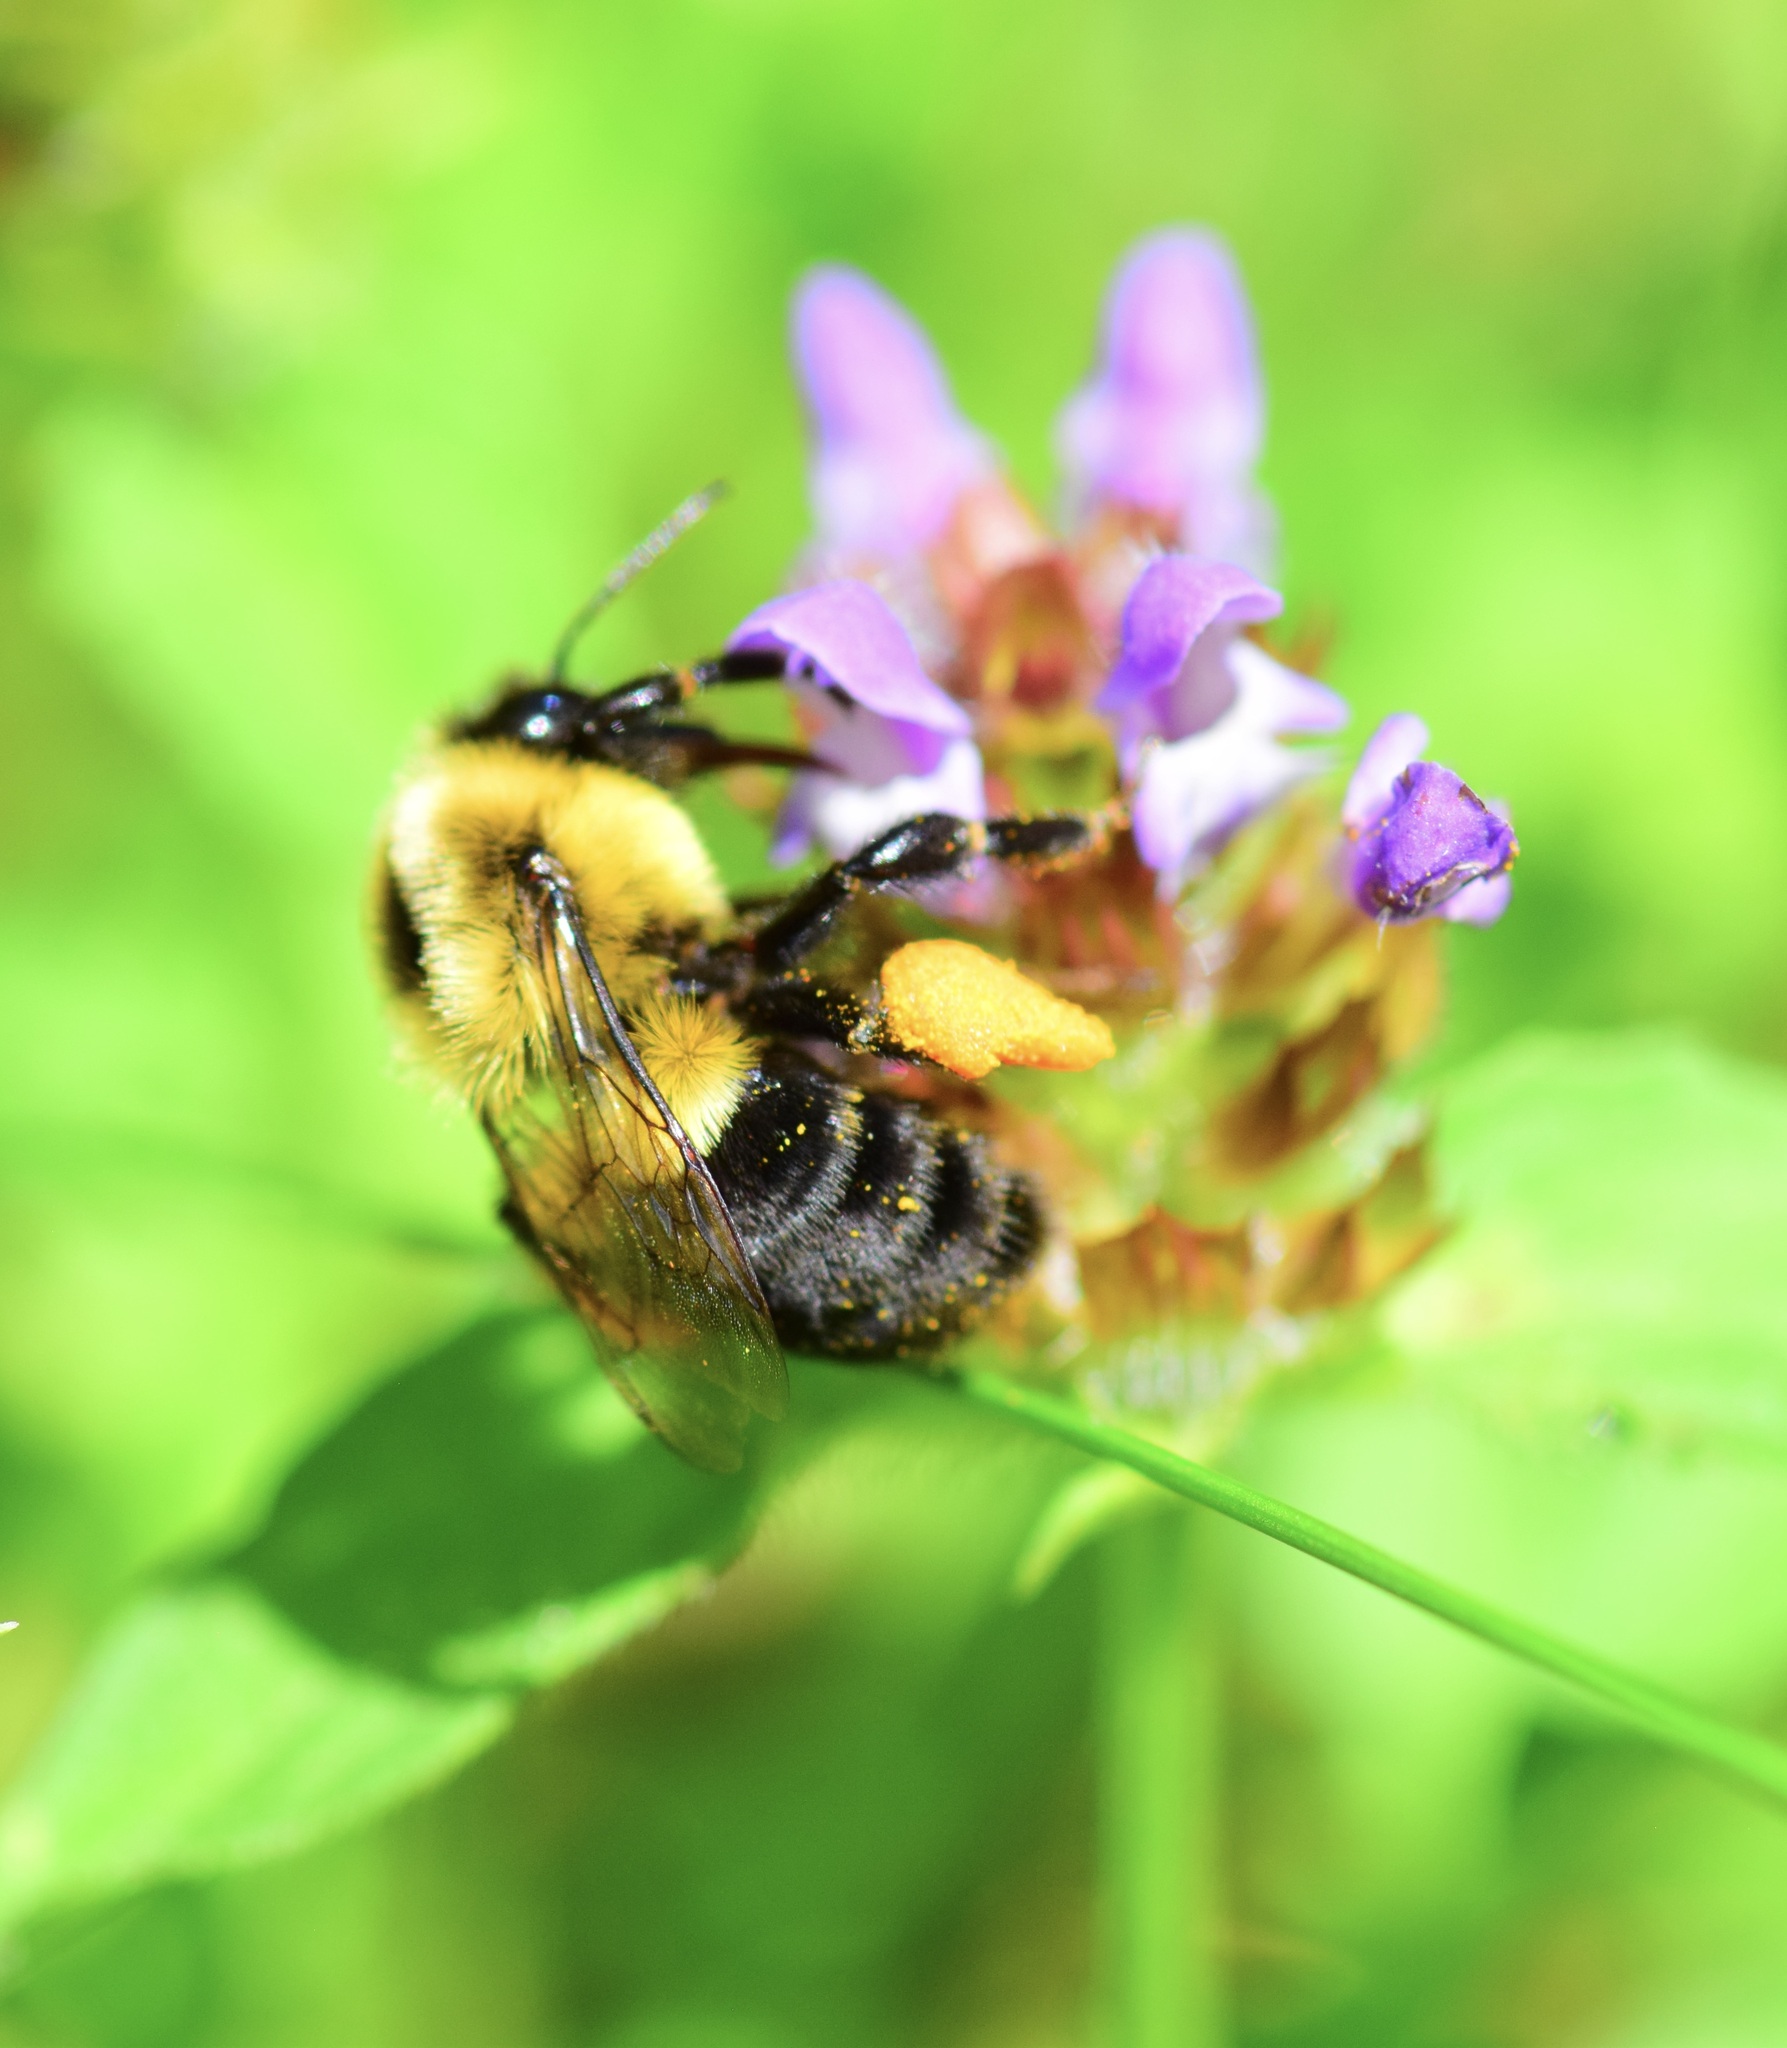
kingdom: Animalia
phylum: Arthropoda
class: Insecta
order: Hymenoptera
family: Apidae
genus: Bombus
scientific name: Bombus impatiens
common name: Common eastern bumble bee
